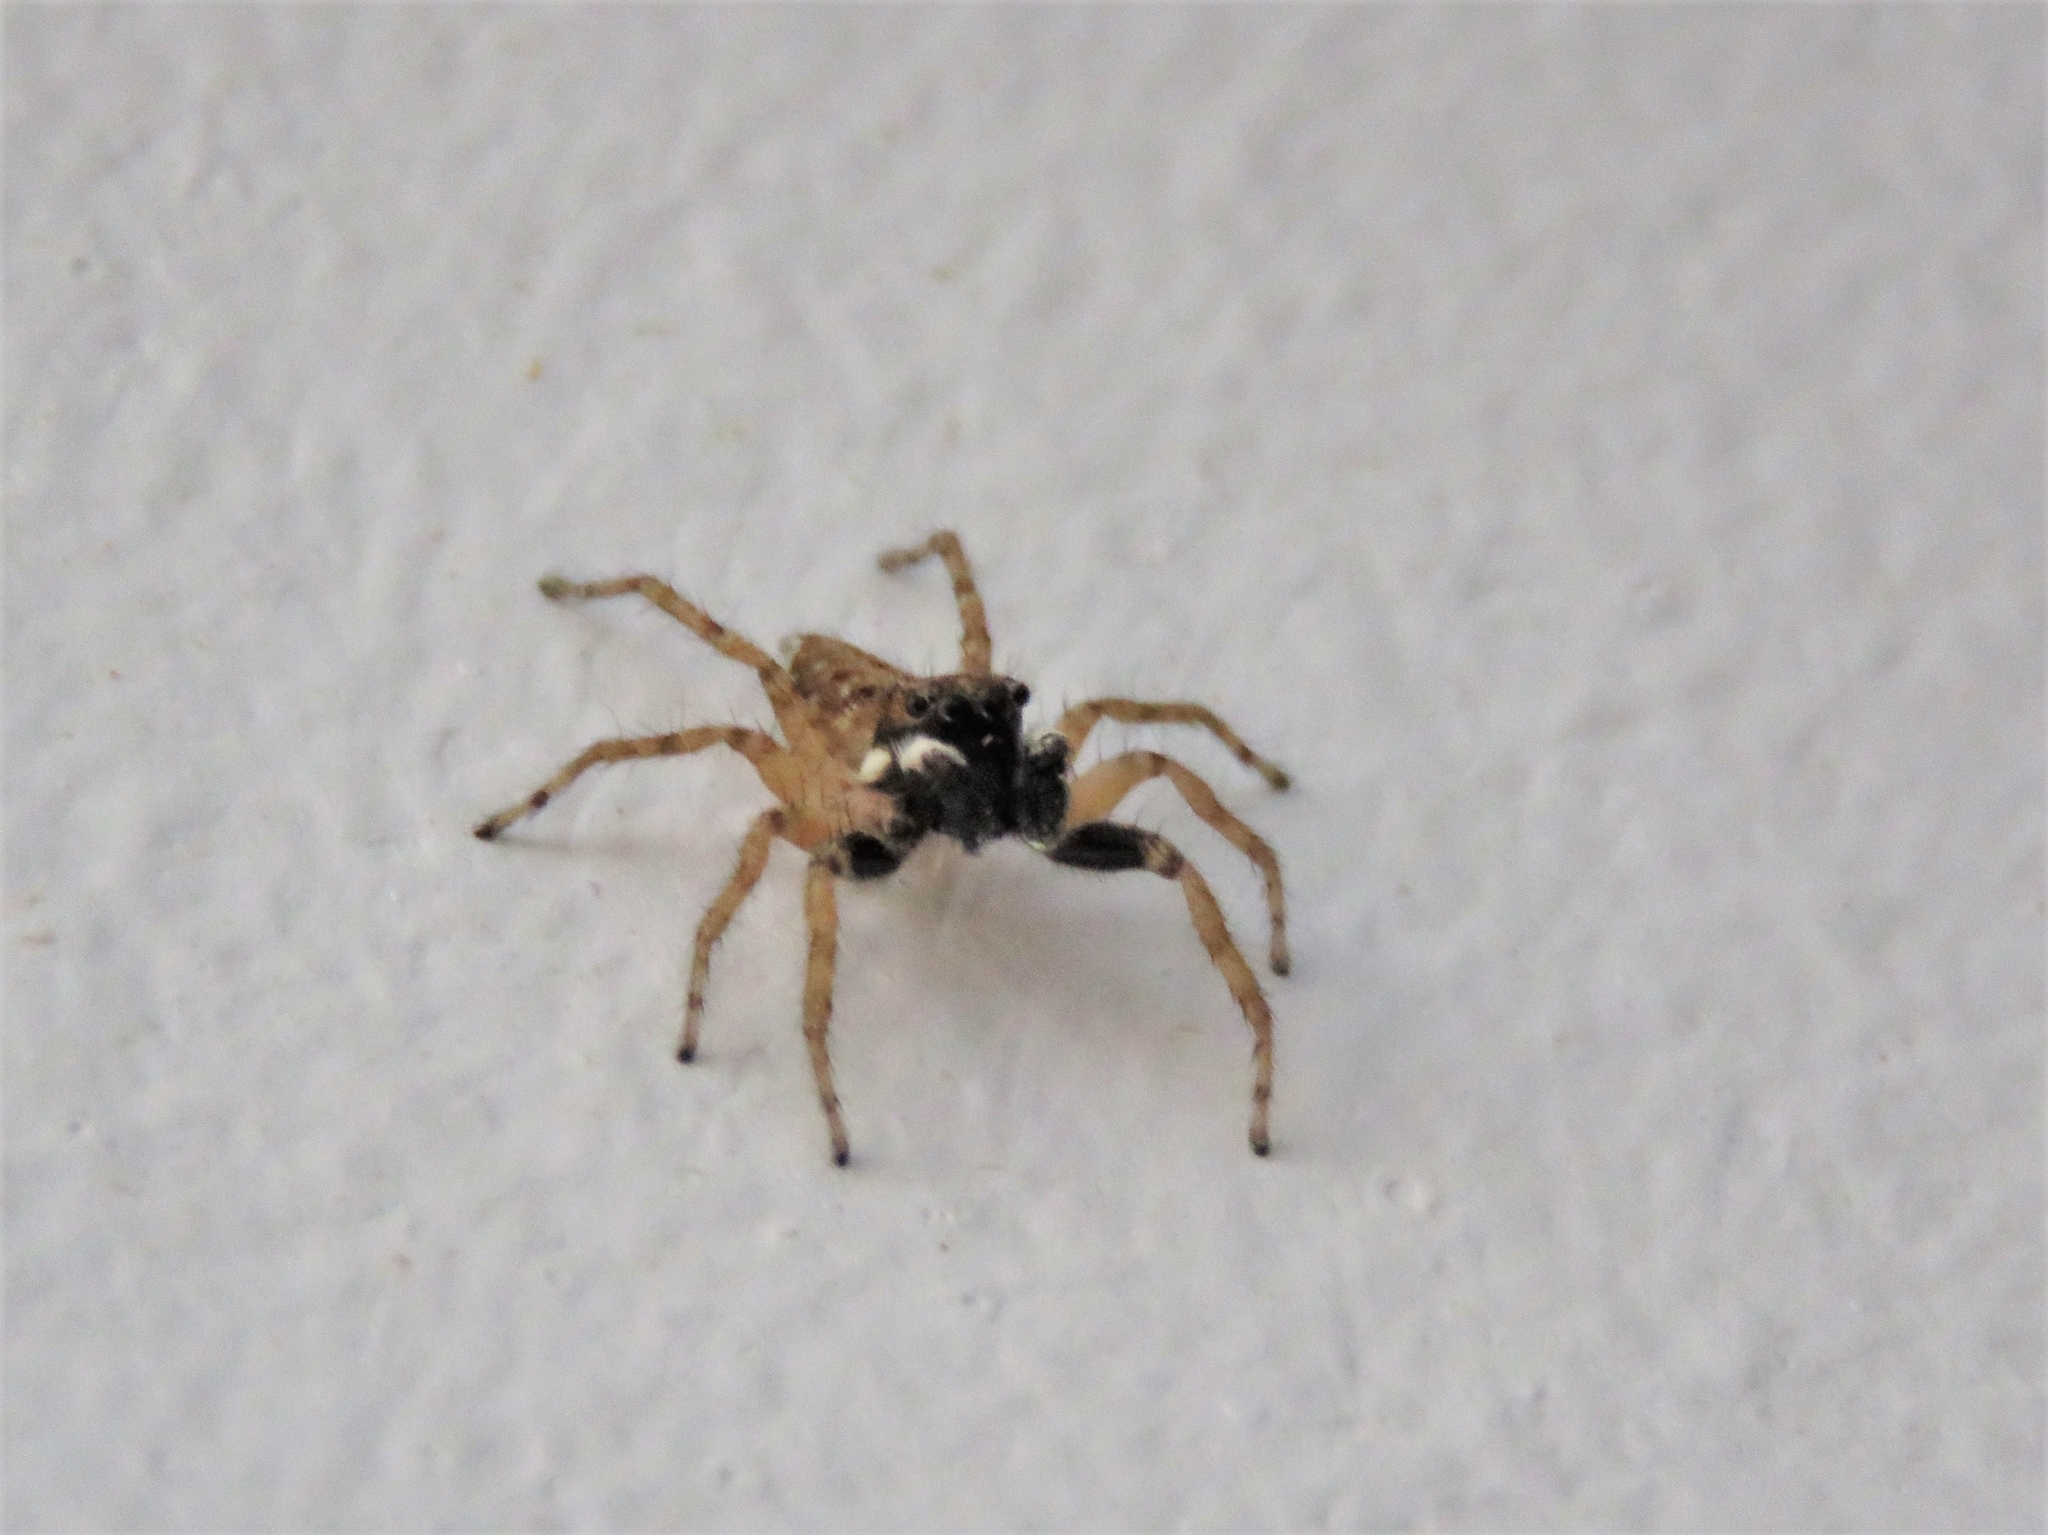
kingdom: Animalia
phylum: Arthropoda
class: Arachnida
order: Araneae
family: Salticidae
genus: Menemerus
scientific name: Menemerus semilimbatus
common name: Jumping spider
